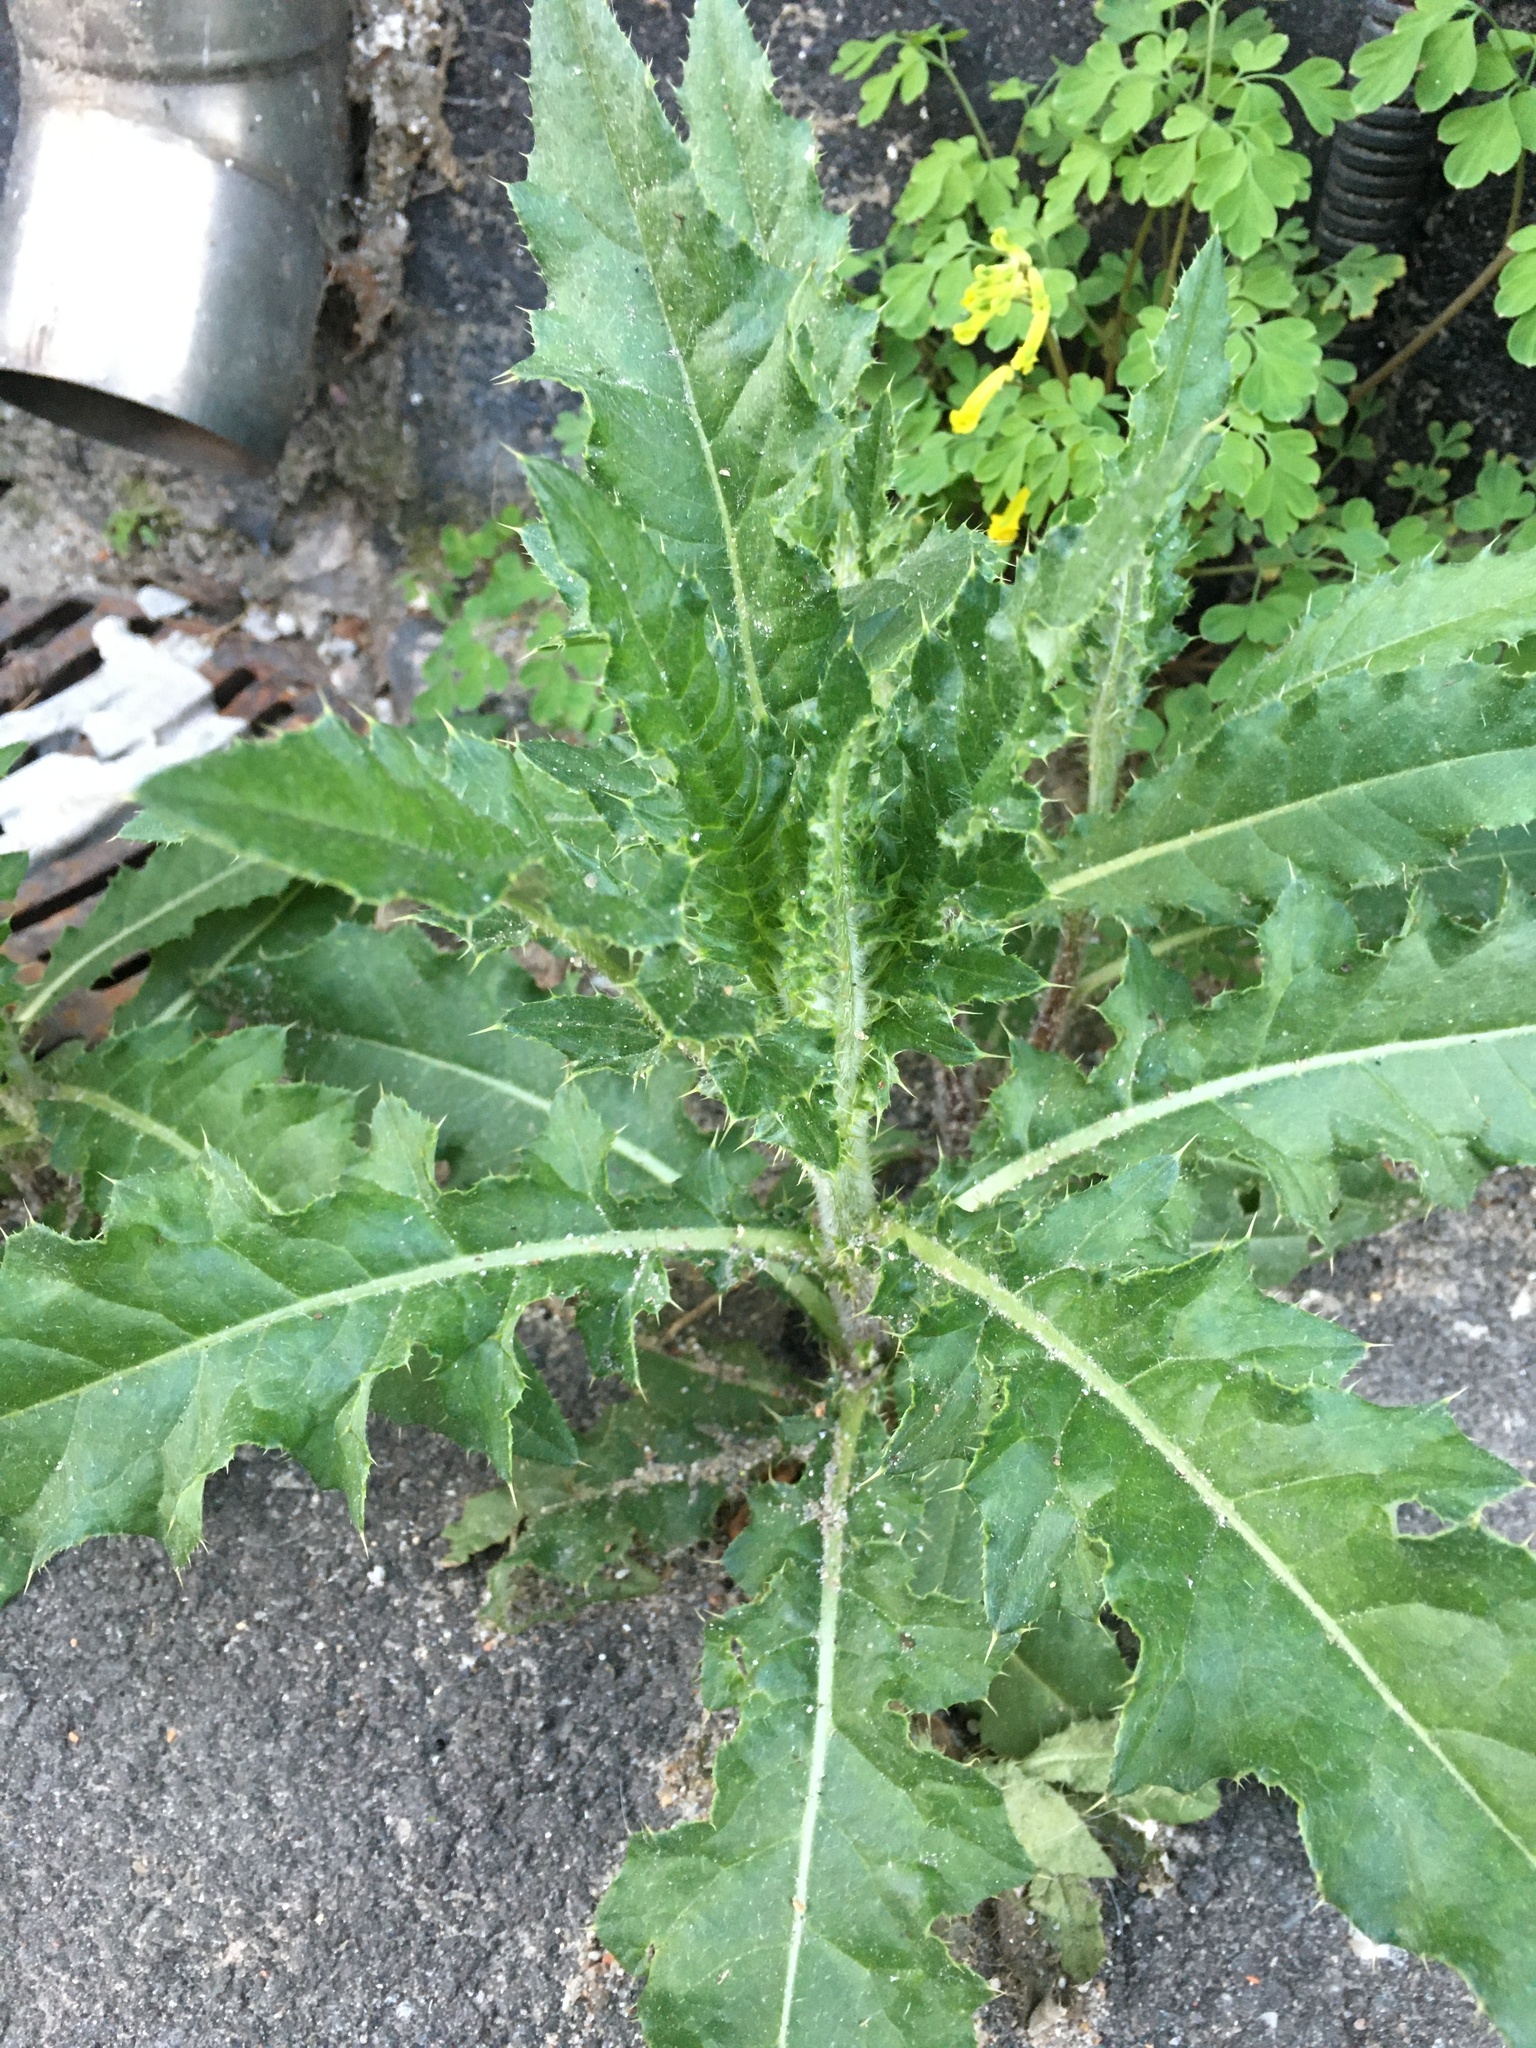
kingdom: Plantae
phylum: Tracheophyta
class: Magnoliopsida
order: Asterales
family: Asteraceae
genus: Cirsium
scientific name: Cirsium arvense
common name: Creeping thistle
